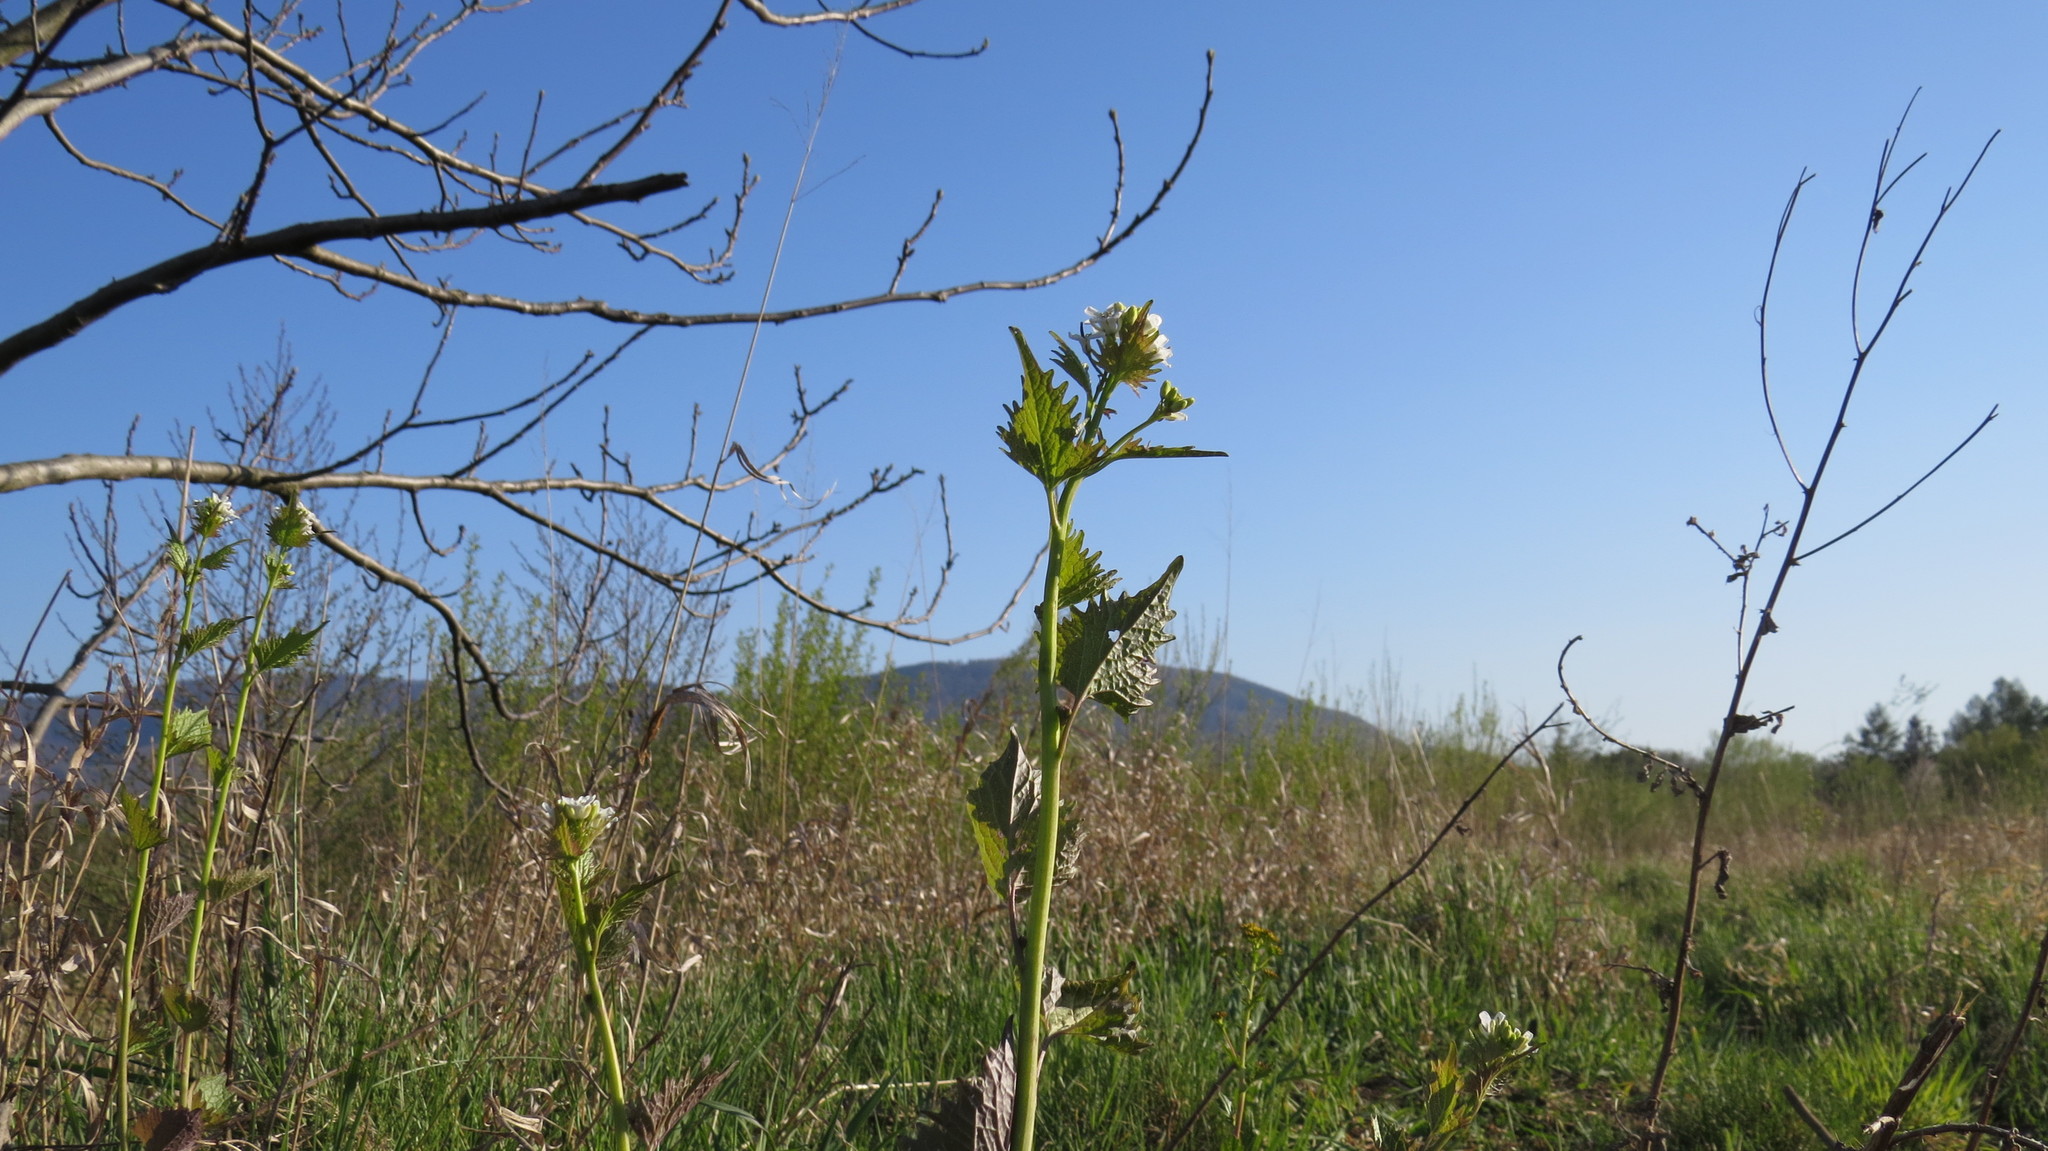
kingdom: Plantae
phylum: Tracheophyta
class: Magnoliopsida
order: Brassicales
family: Brassicaceae
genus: Alliaria
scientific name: Alliaria petiolata
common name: Garlic mustard
